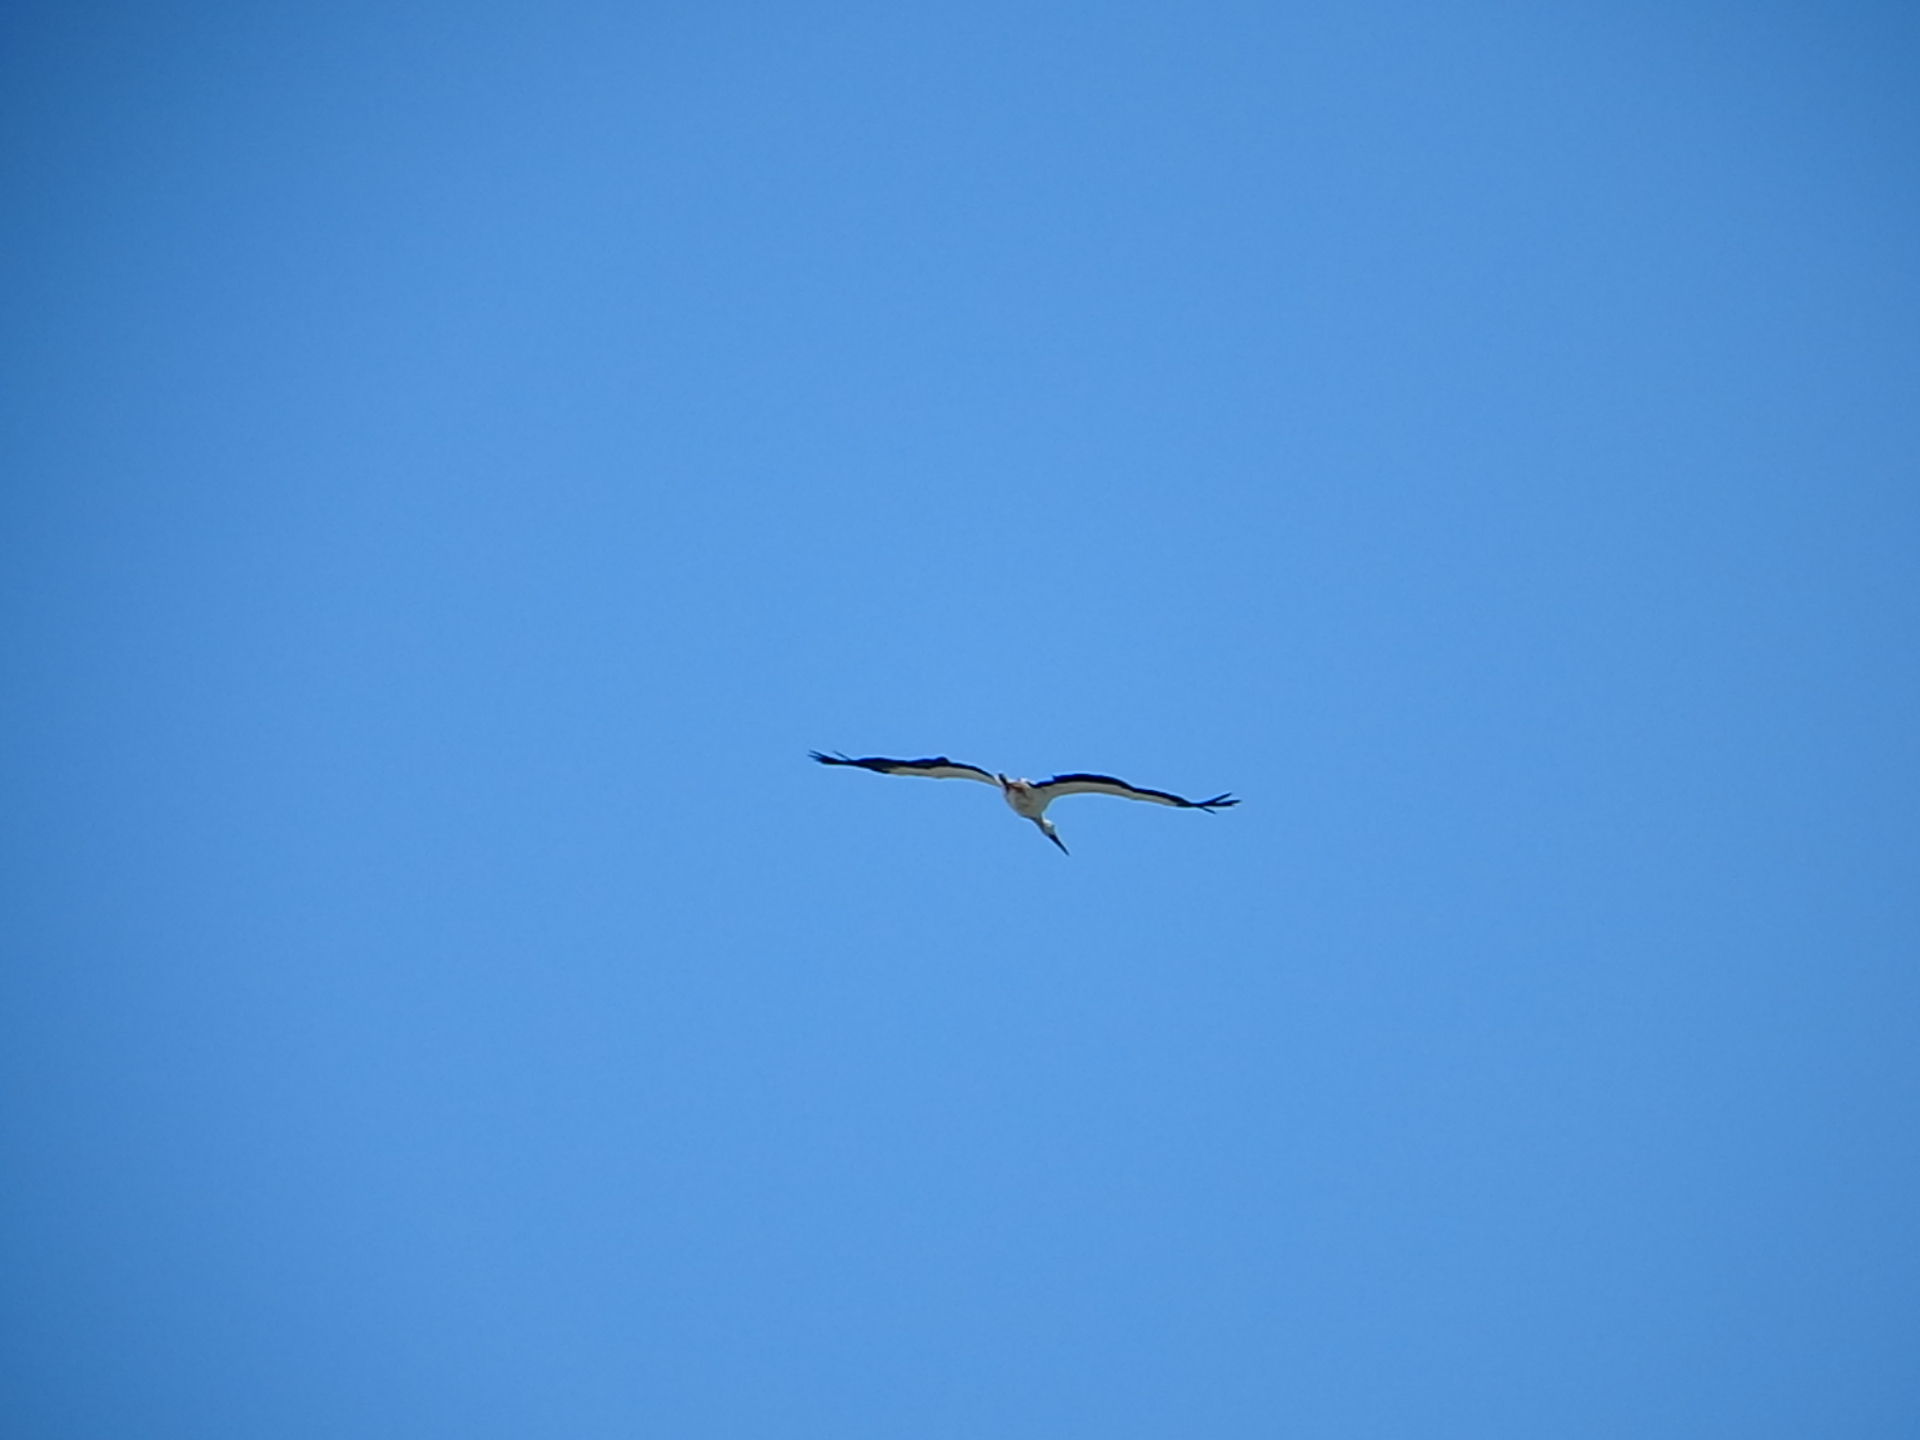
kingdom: Animalia
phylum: Chordata
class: Aves
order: Ciconiiformes
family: Ciconiidae
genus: Ciconia
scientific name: Ciconia ciconia
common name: White stork
